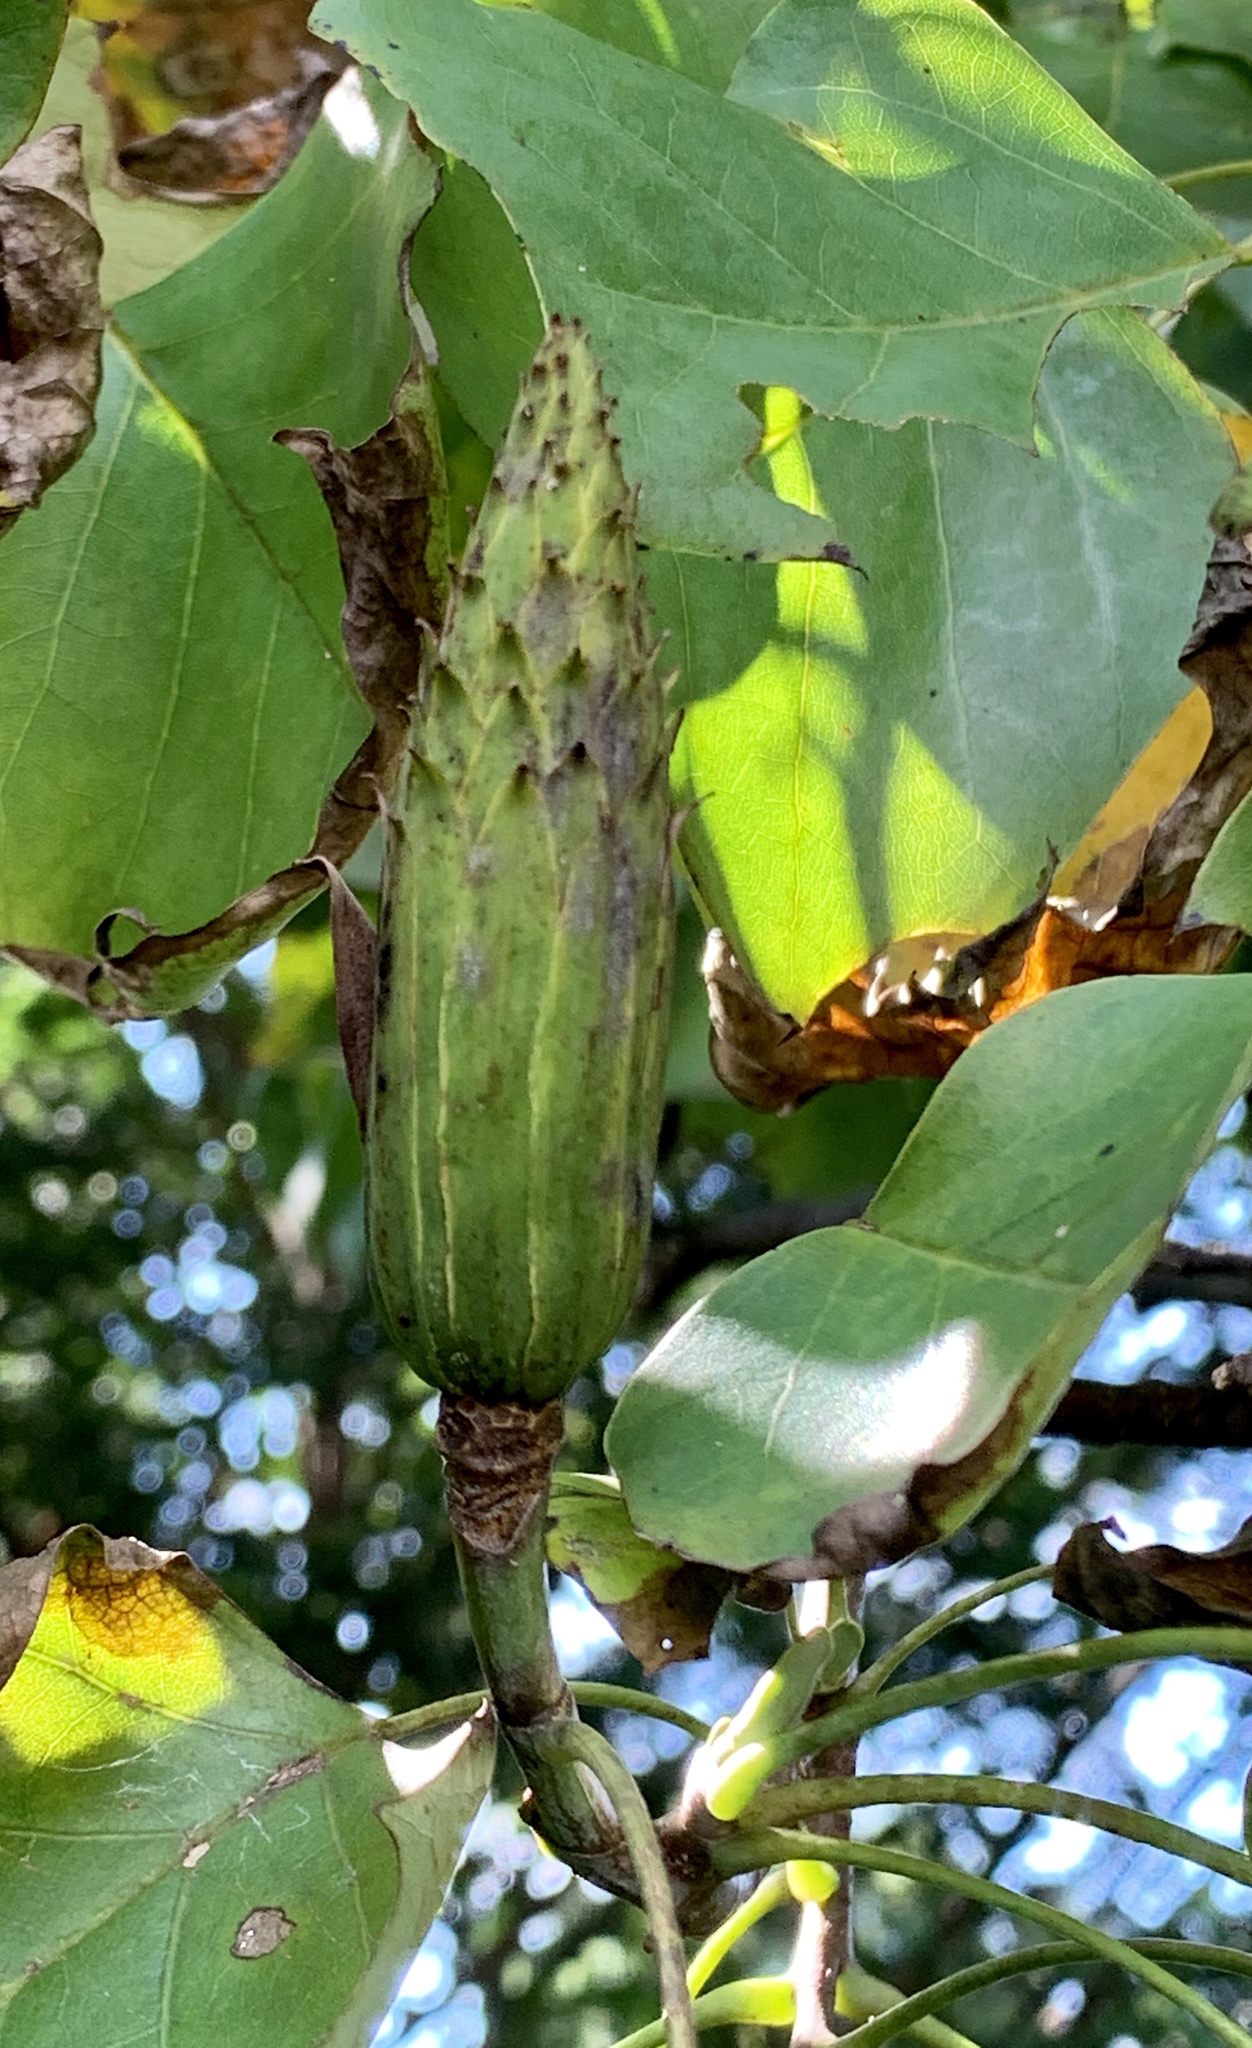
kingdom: Plantae
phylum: Tracheophyta
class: Magnoliopsida
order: Magnoliales
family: Magnoliaceae
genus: Liriodendron
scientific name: Liriodendron tulipifera
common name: Tulip tree
